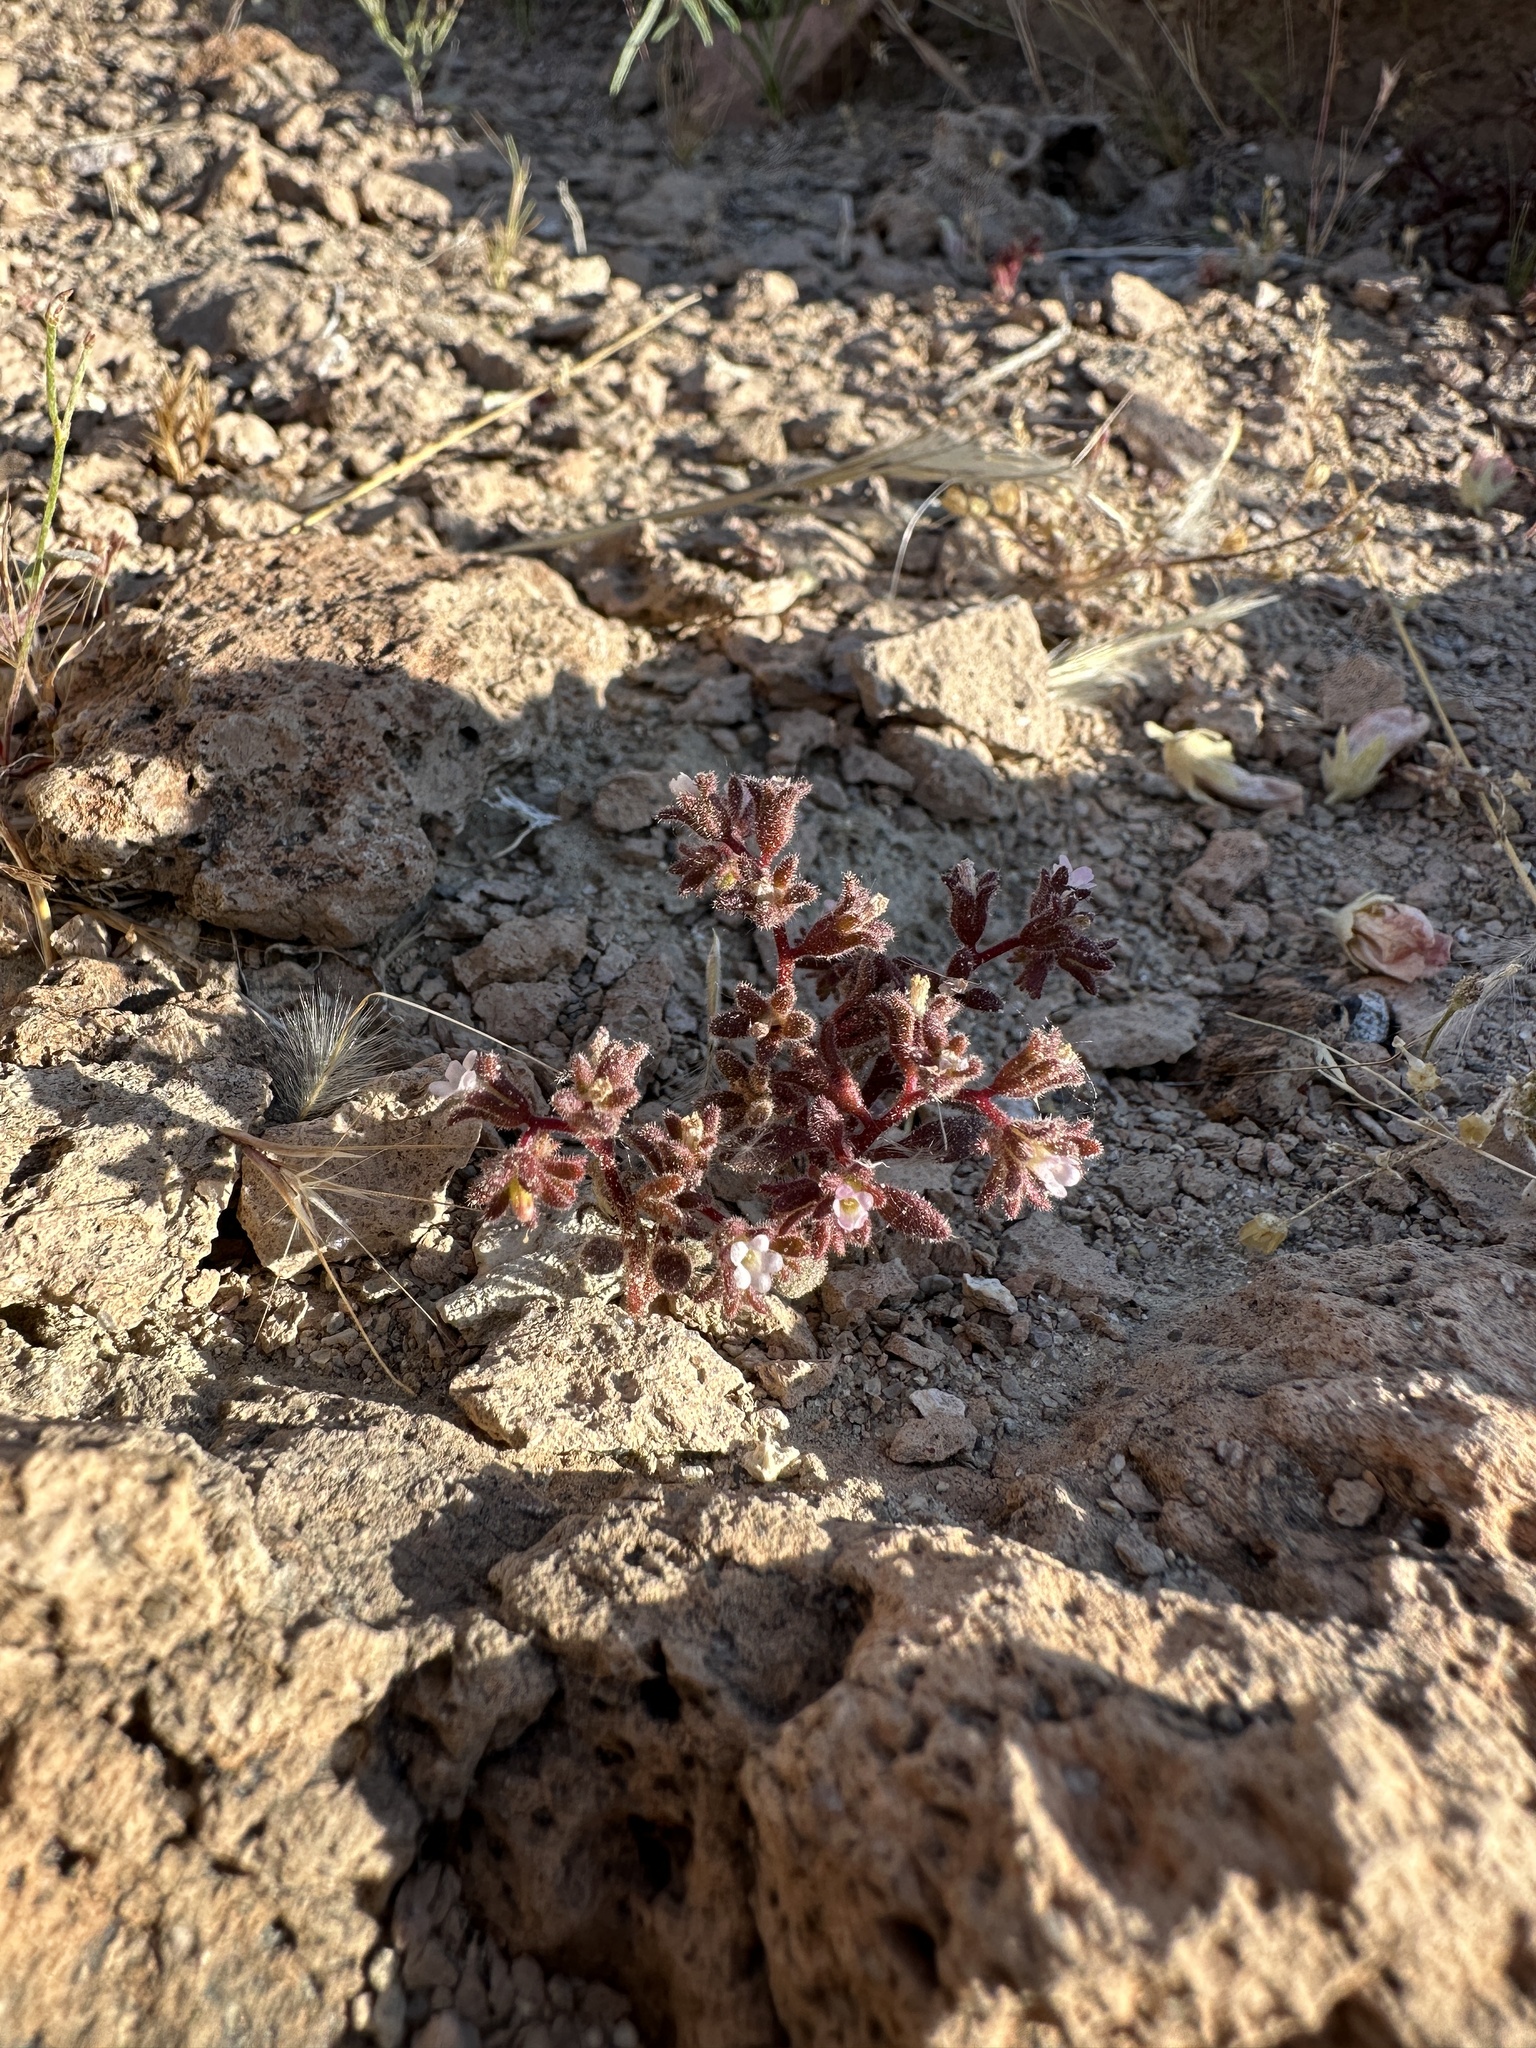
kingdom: Plantae
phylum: Tracheophyta
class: Magnoliopsida
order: Boraginales
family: Hydrophyllaceae
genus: Phacelia
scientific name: Phacelia saxicola
